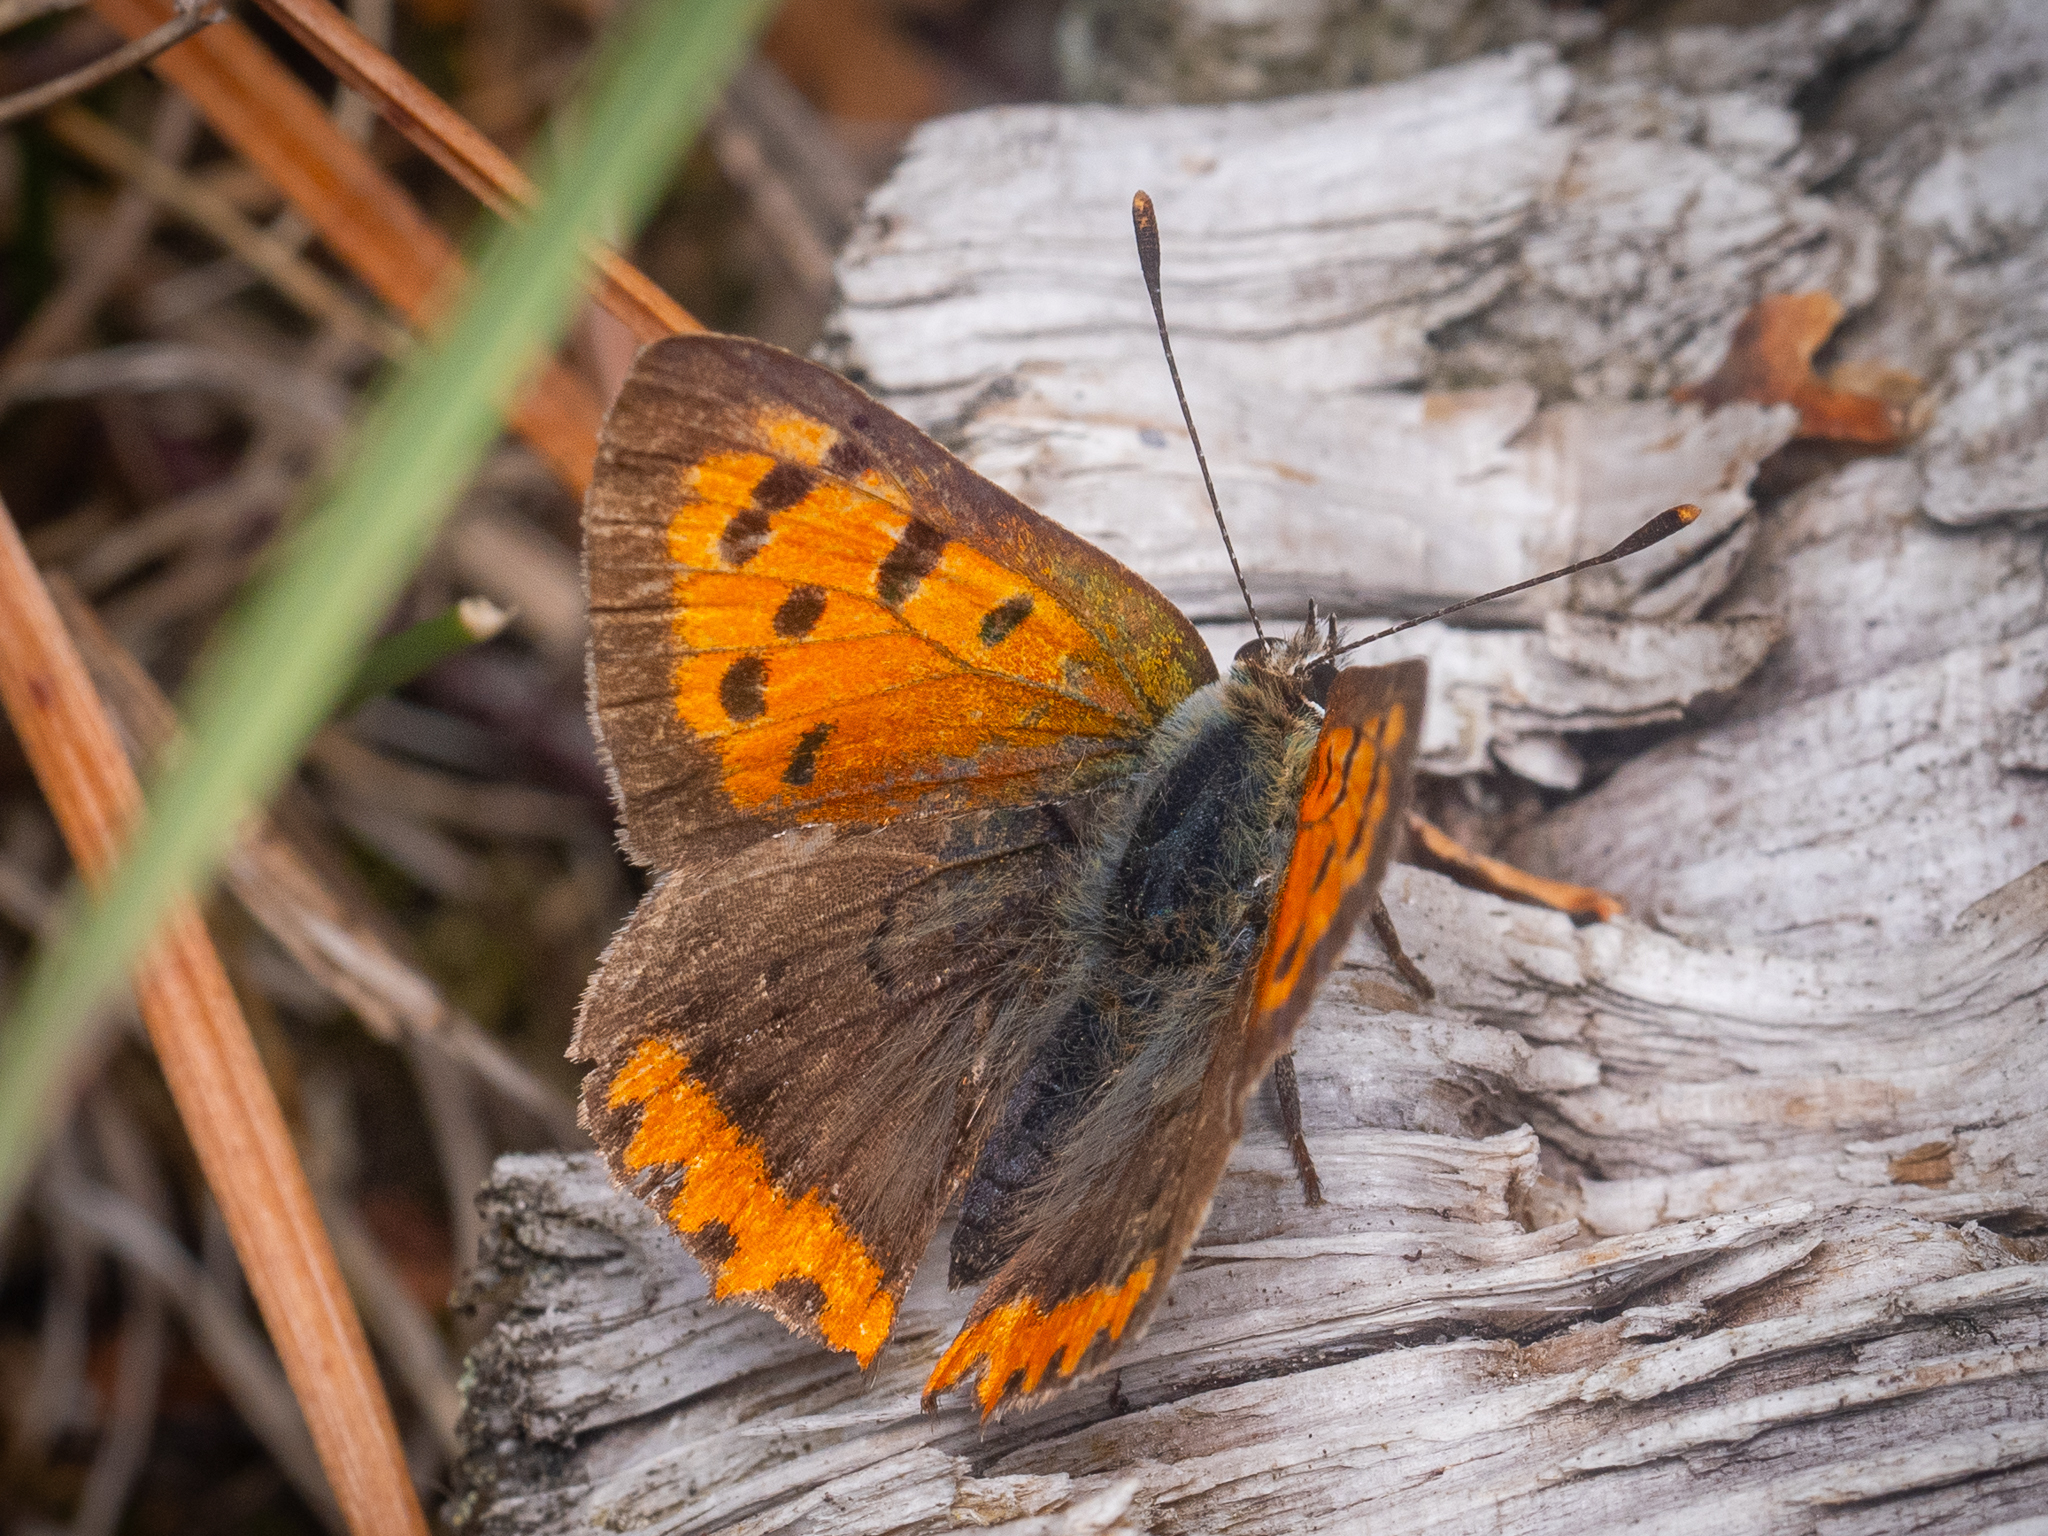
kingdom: Animalia
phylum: Arthropoda
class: Insecta
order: Lepidoptera
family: Lycaenidae
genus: Lycaena
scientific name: Lycaena phlaeas
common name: Small copper
